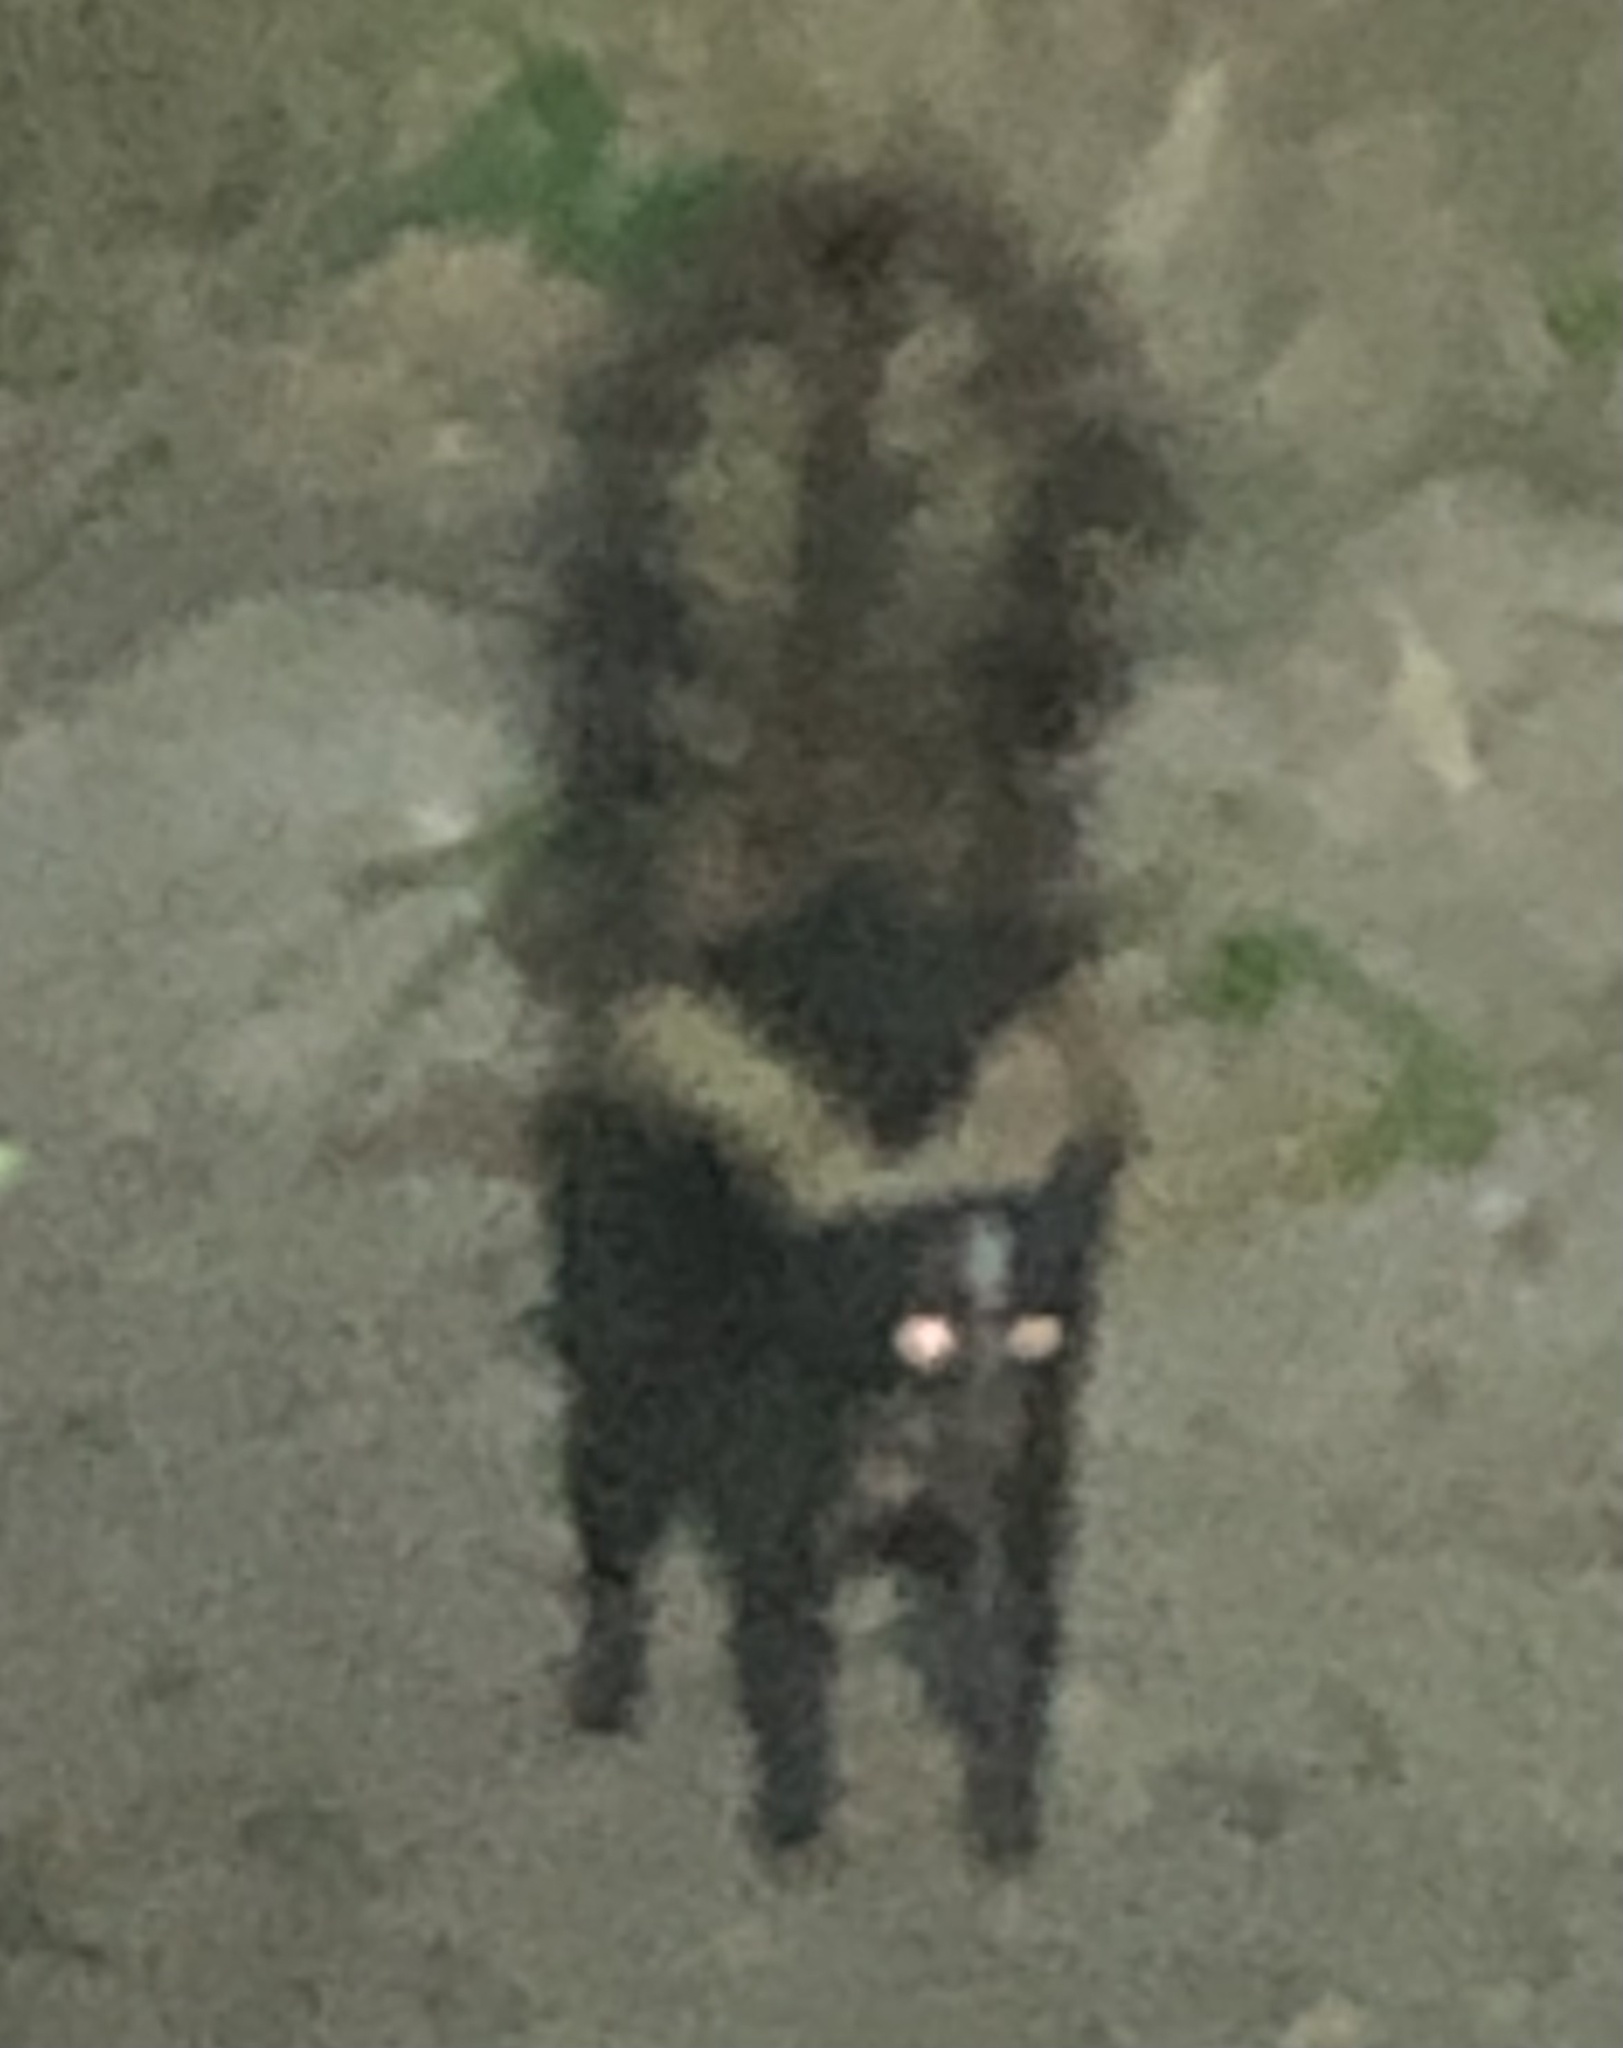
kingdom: Animalia
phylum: Chordata
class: Mammalia
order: Carnivora
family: Mephitidae
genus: Mephitis
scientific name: Mephitis mephitis
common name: Striped skunk
